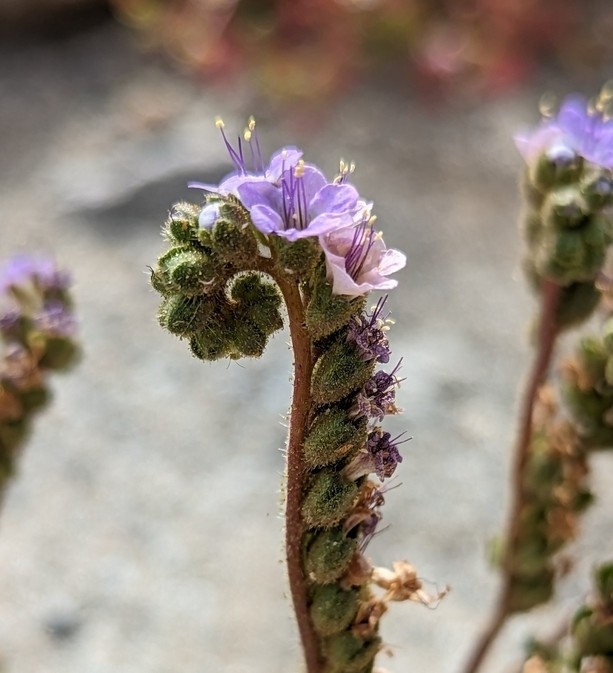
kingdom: Plantae
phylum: Tracheophyta
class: Magnoliopsida
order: Boraginales
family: Hydrophyllaceae
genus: Phacelia
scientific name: Phacelia crenulata
